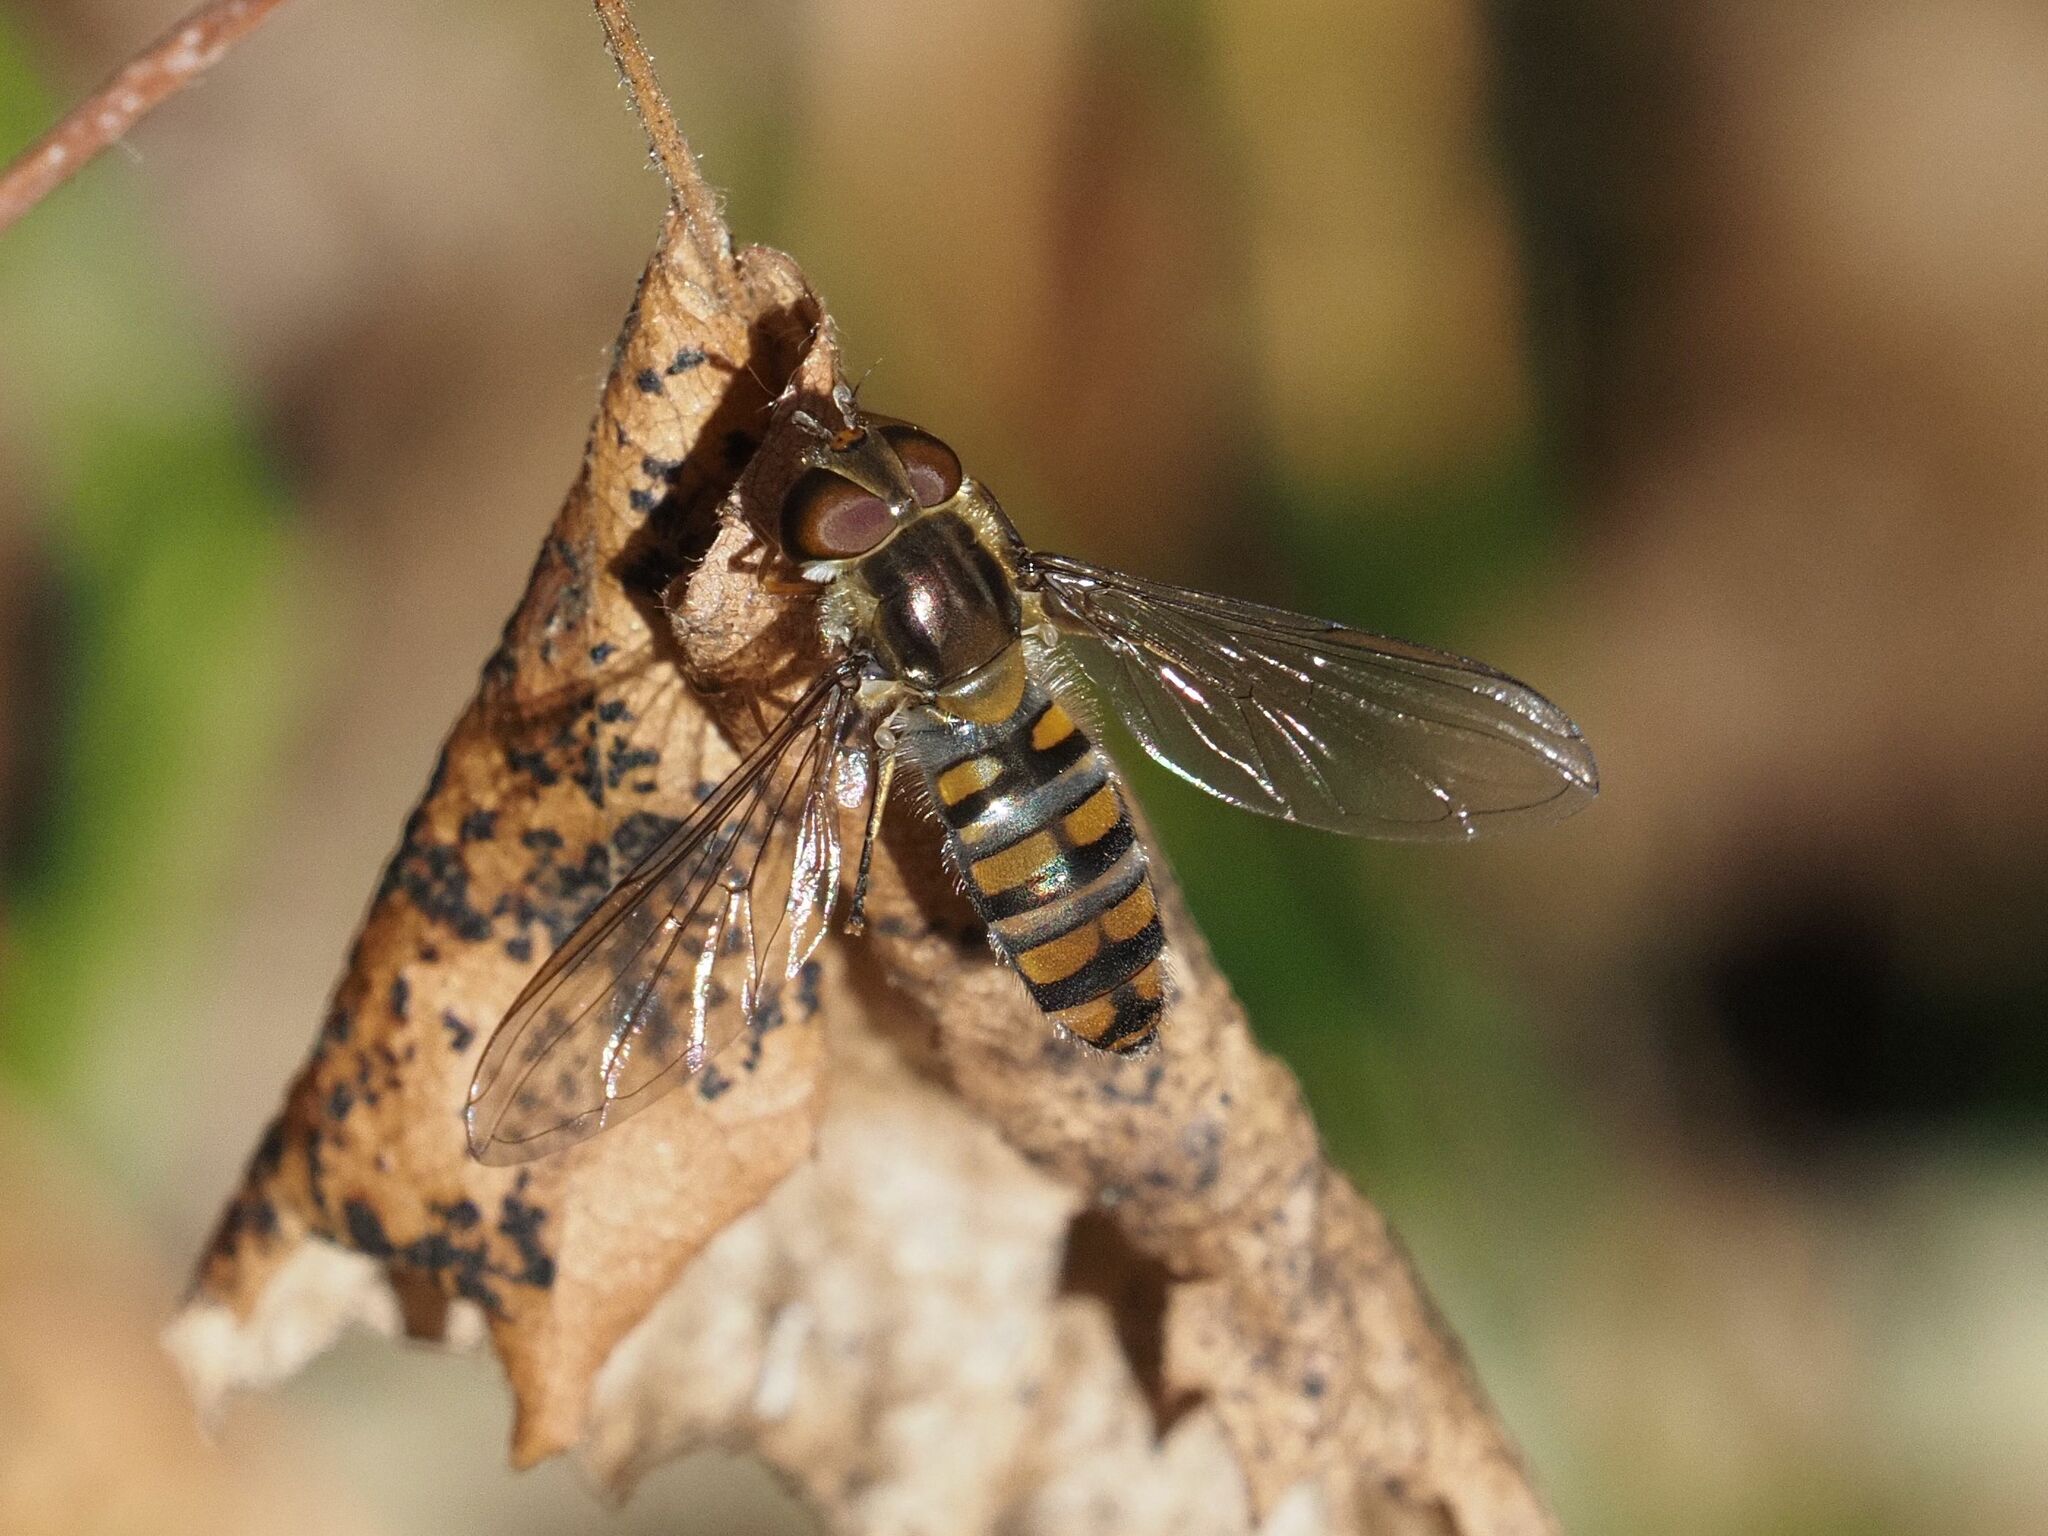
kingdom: Animalia
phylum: Arthropoda
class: Insecta
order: Diptera
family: Syrphidae
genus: Episyrphus
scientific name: Episyrphus balteatus
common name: Marmalade hoverfly
